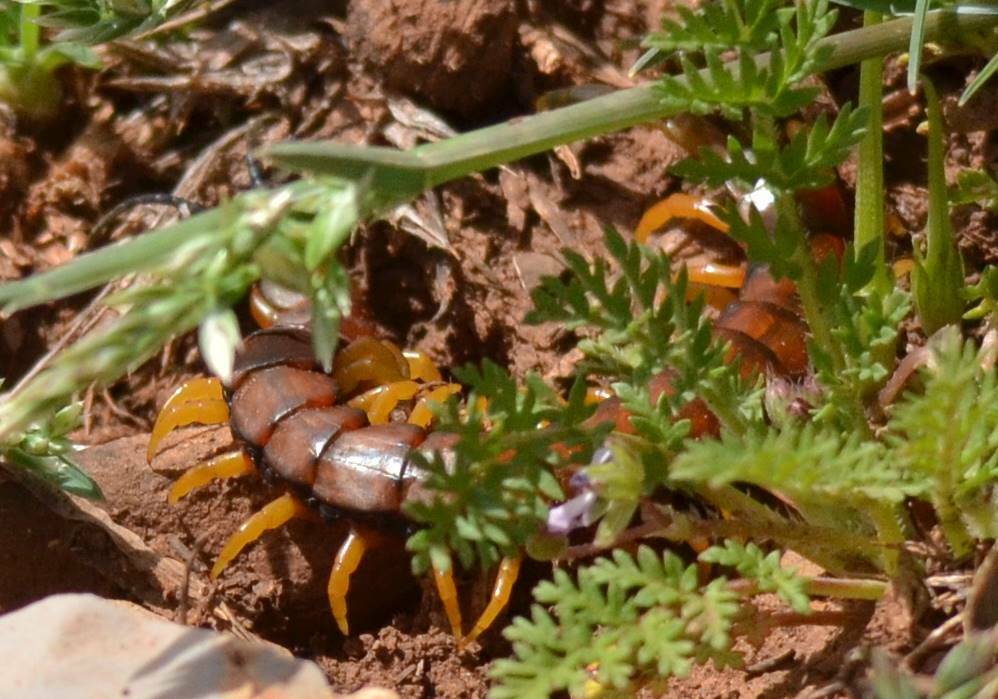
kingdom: Animalia
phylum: Arthropoda
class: Chilopoda
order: Scolopendromorpha
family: Scolopendridae
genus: Scolopendra
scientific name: Scolopendra cingulata
